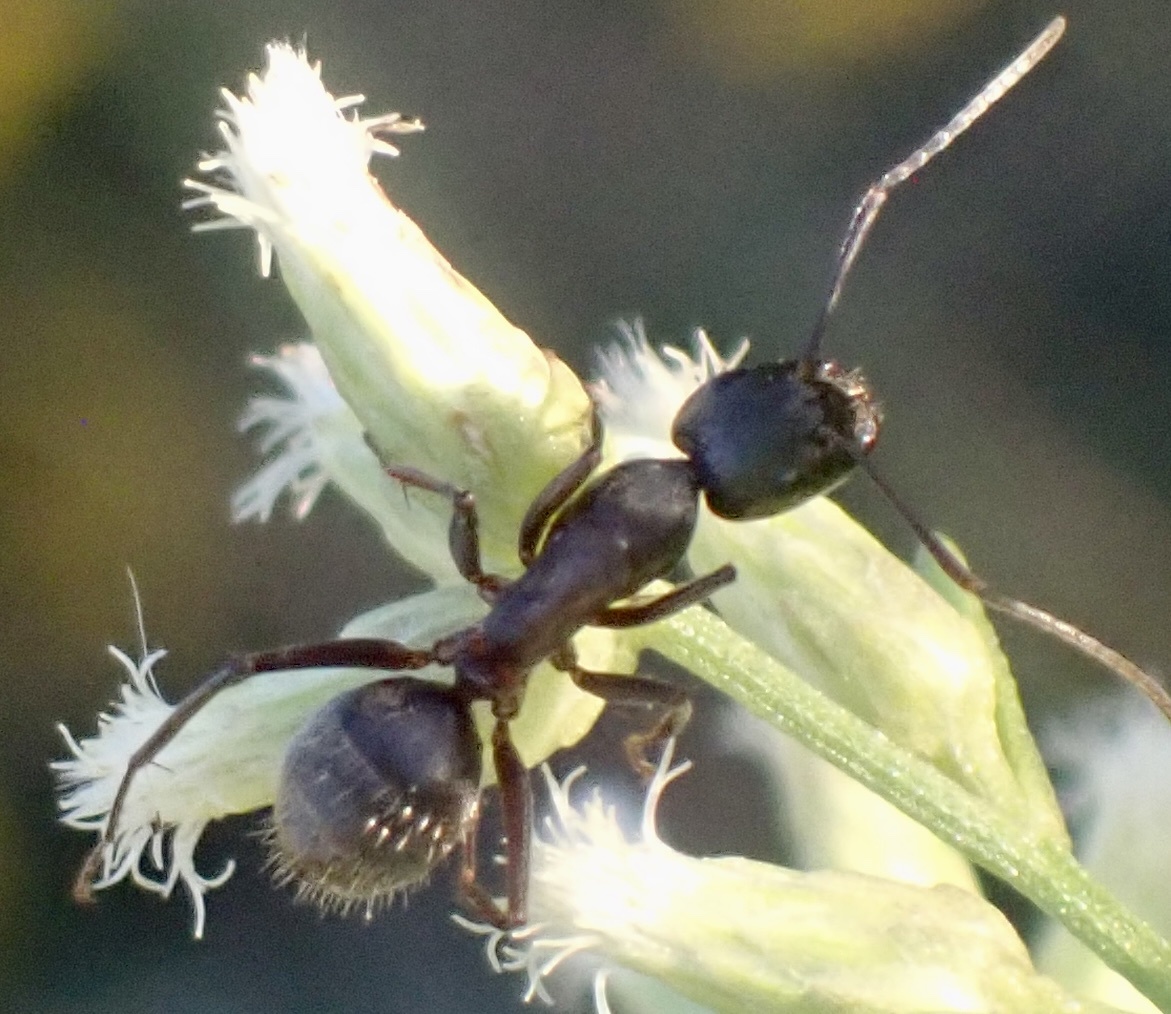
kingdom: Animalia
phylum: Arthropoda
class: Insecta
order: Hymenoptera
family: Formicidae
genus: Camponotus
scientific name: Camponotus chromaiodes
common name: Red carpenter ant
